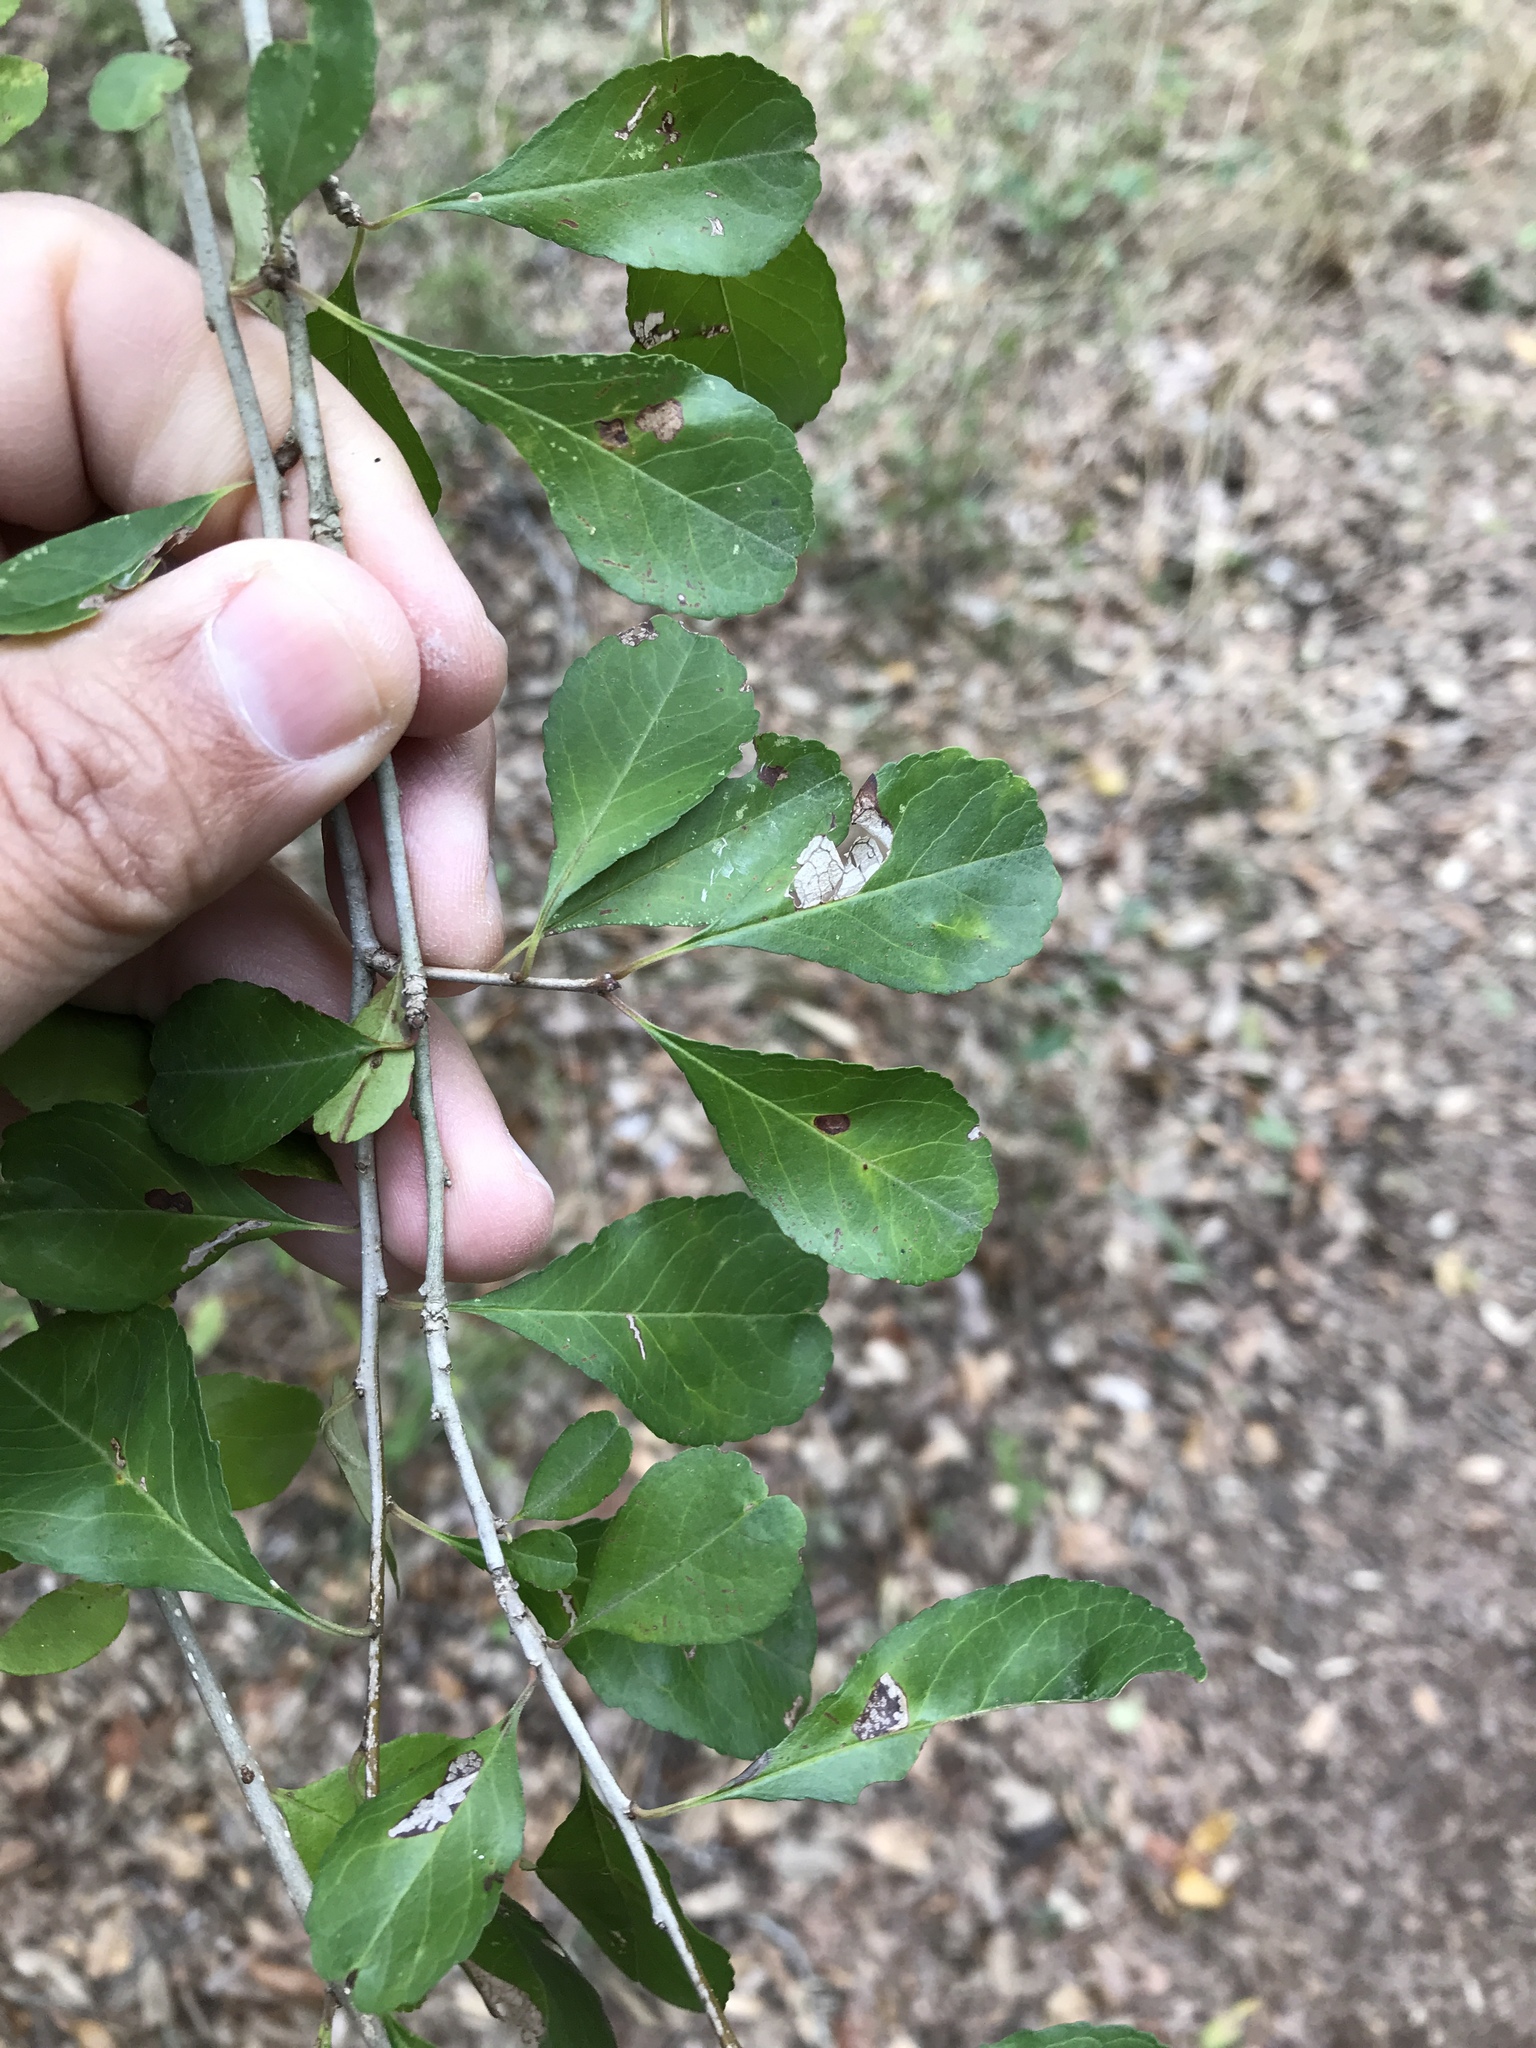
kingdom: Plantae
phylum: Tracheophyta
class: Magnoliopsida
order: Aquifoliales
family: Aquifoliaceae
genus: Ilex
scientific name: Ilex decidua
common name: Possum-haw
